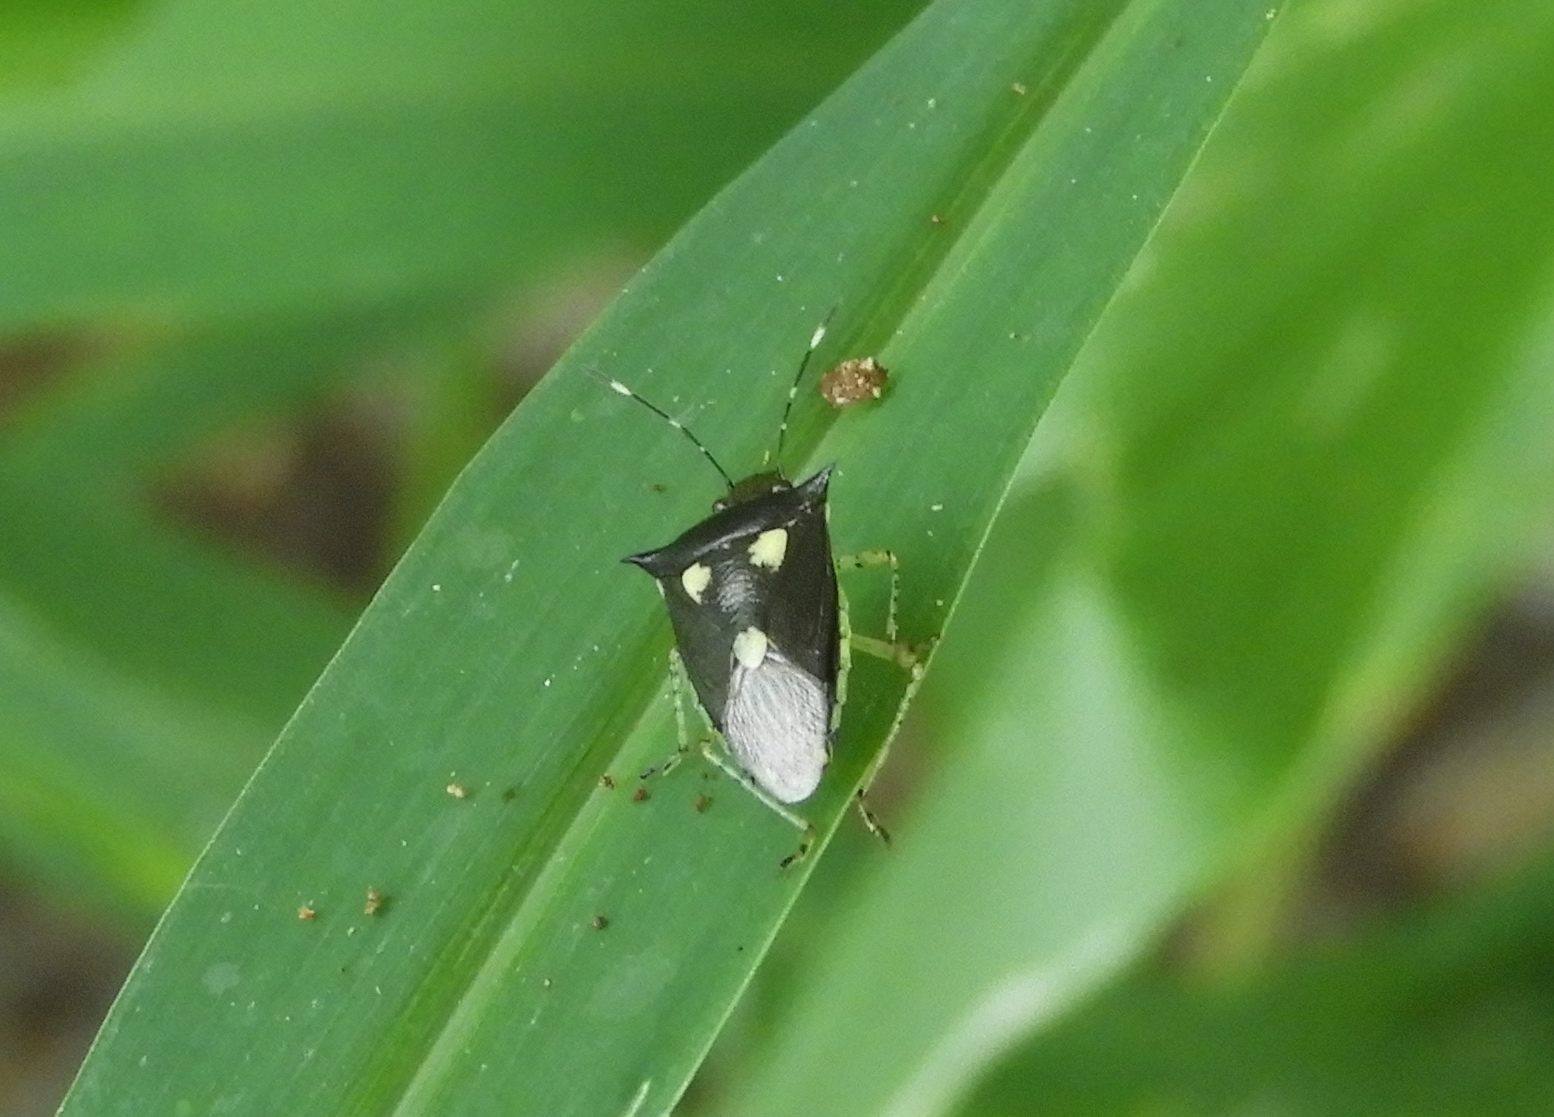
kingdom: Animalia
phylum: Arthropoda
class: Insecta
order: Hemiptera
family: Pentatomidae
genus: Mormidea
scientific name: Mormidea lunara
